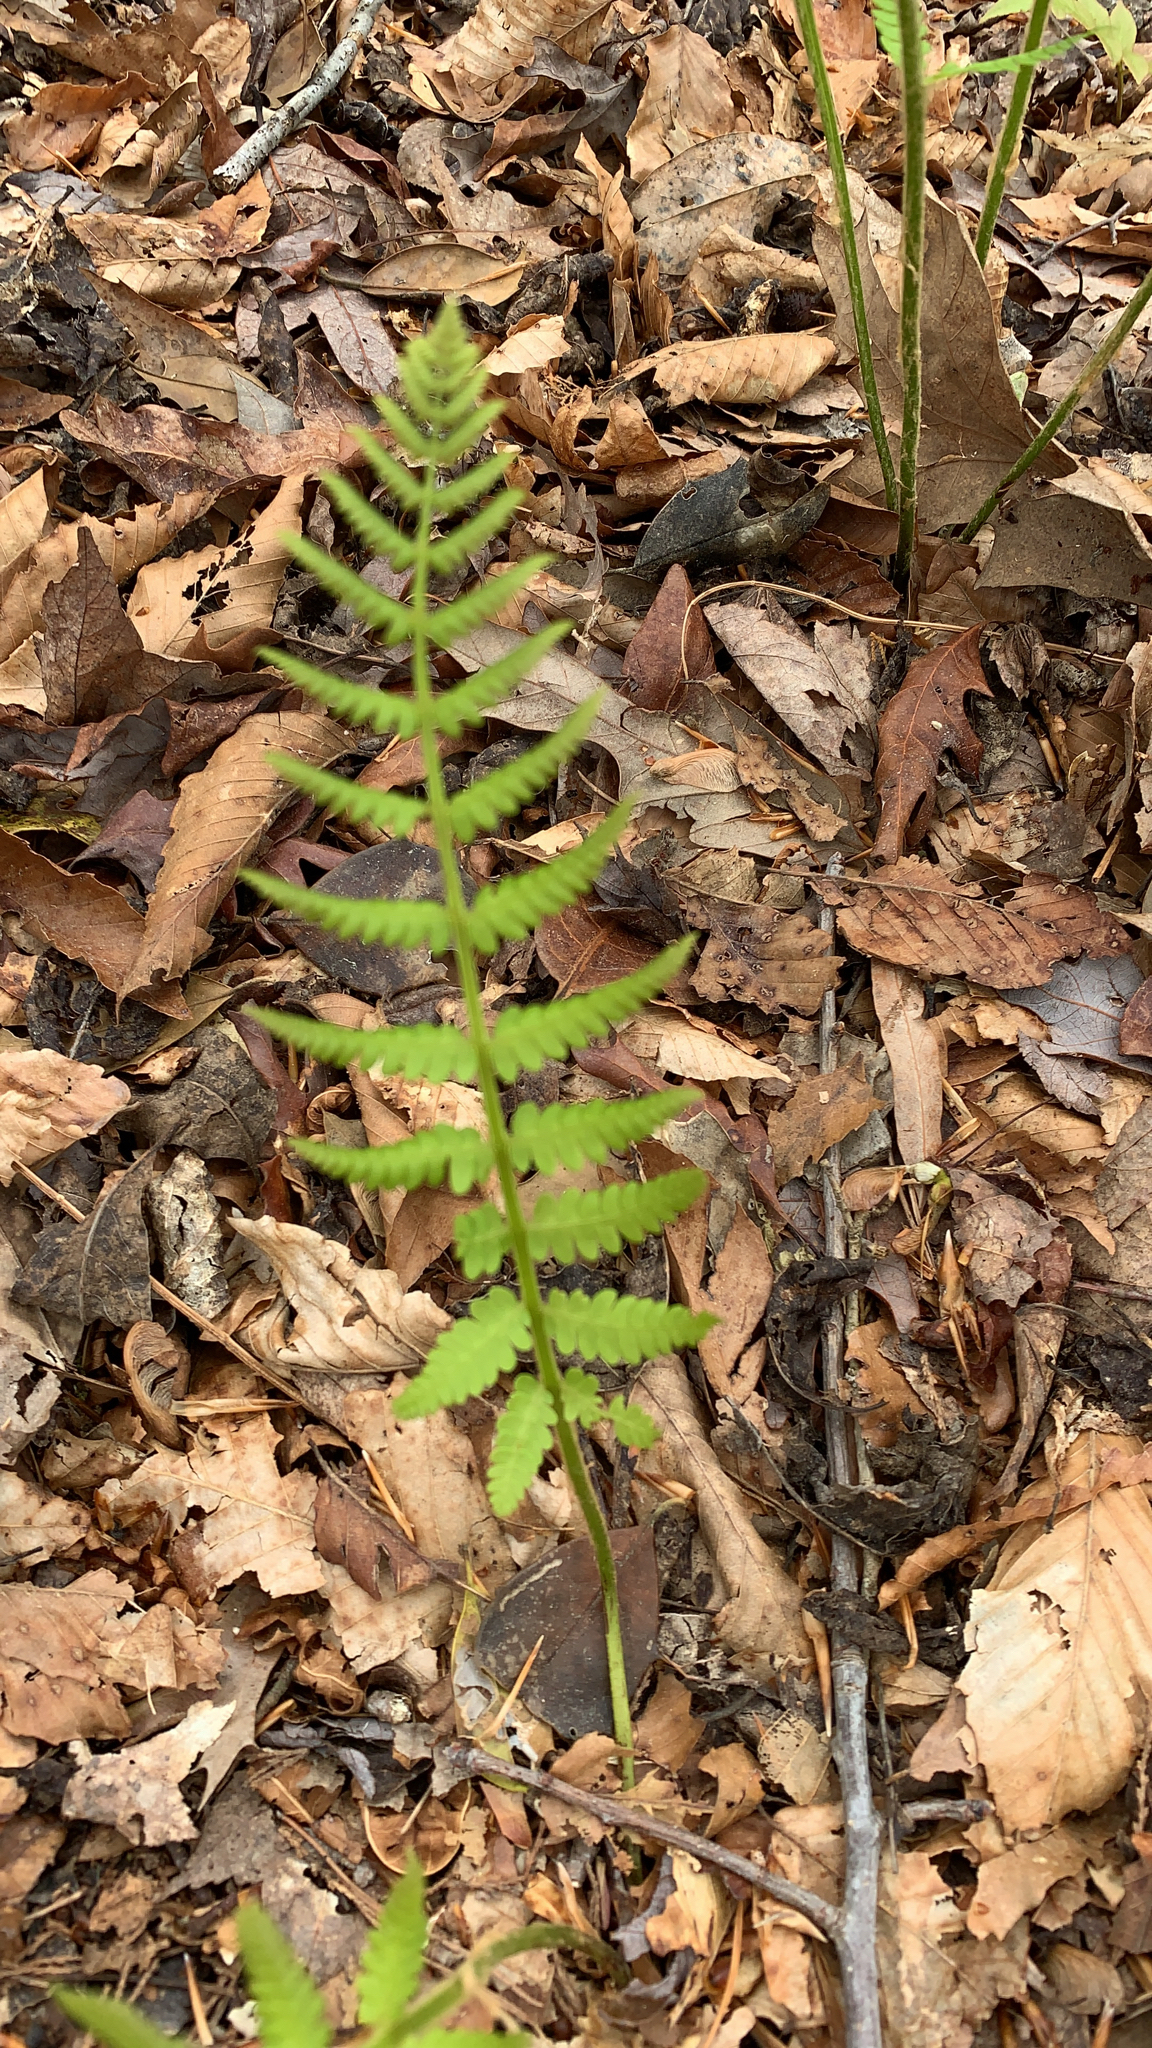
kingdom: Plantae
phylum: Tracheophyta
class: Polypodiopsida
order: Osmundales
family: Osmundaceae
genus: Osmundastrum
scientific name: Osmundastrum cinnamomeum
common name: Cinnamon fern
